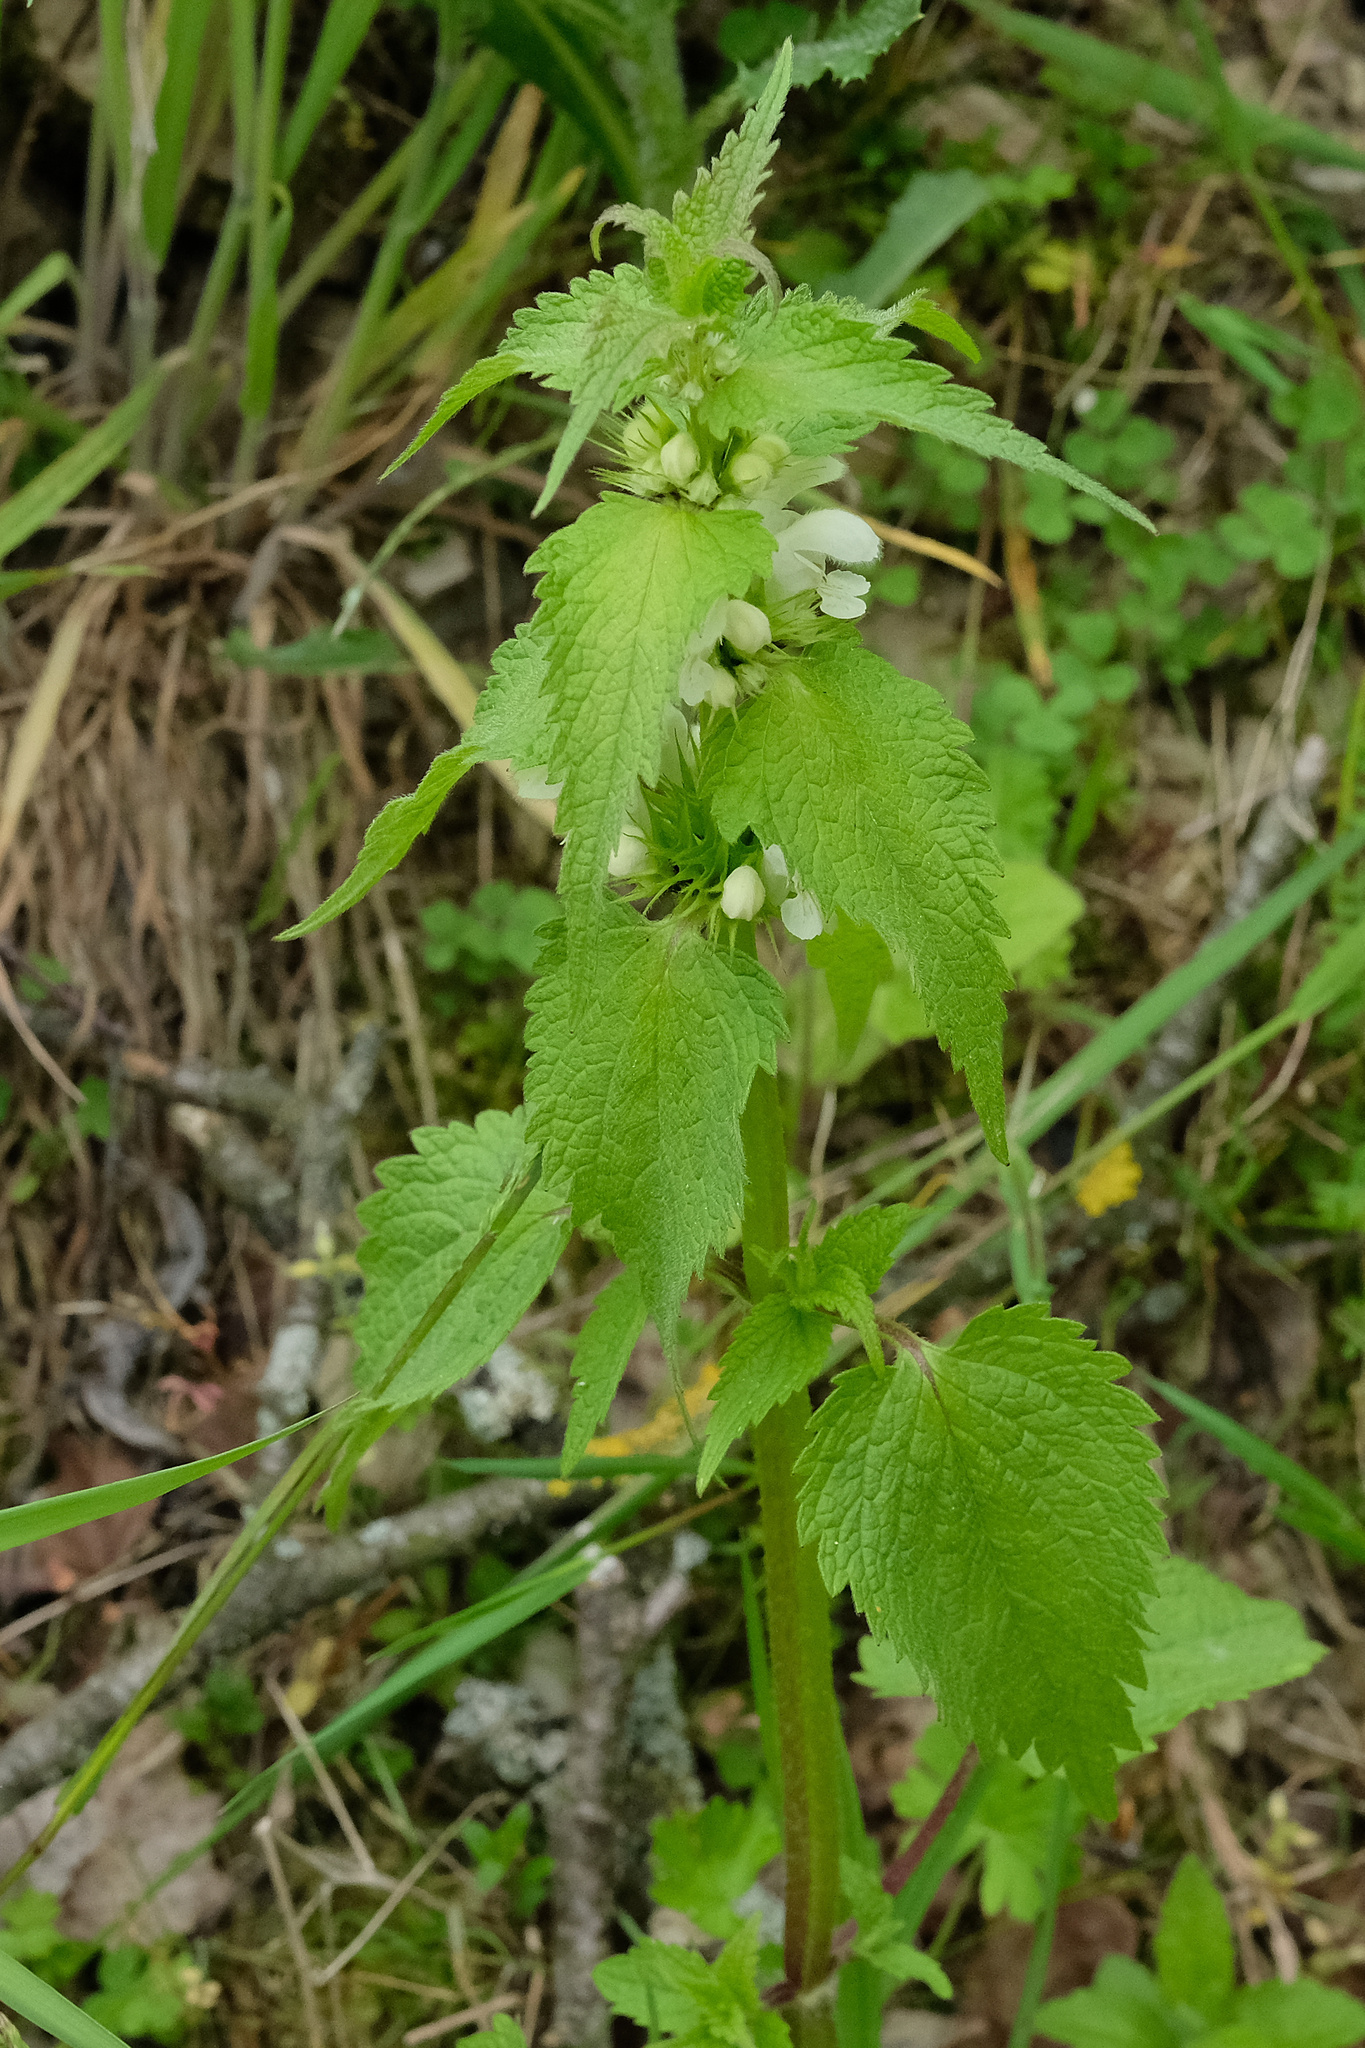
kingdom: Plantae
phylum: Tracheophyta
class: Magnoliopsida
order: Lamiales
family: Lamiaceae
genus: Lamium
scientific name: Lamium album
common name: White dead-nettle
